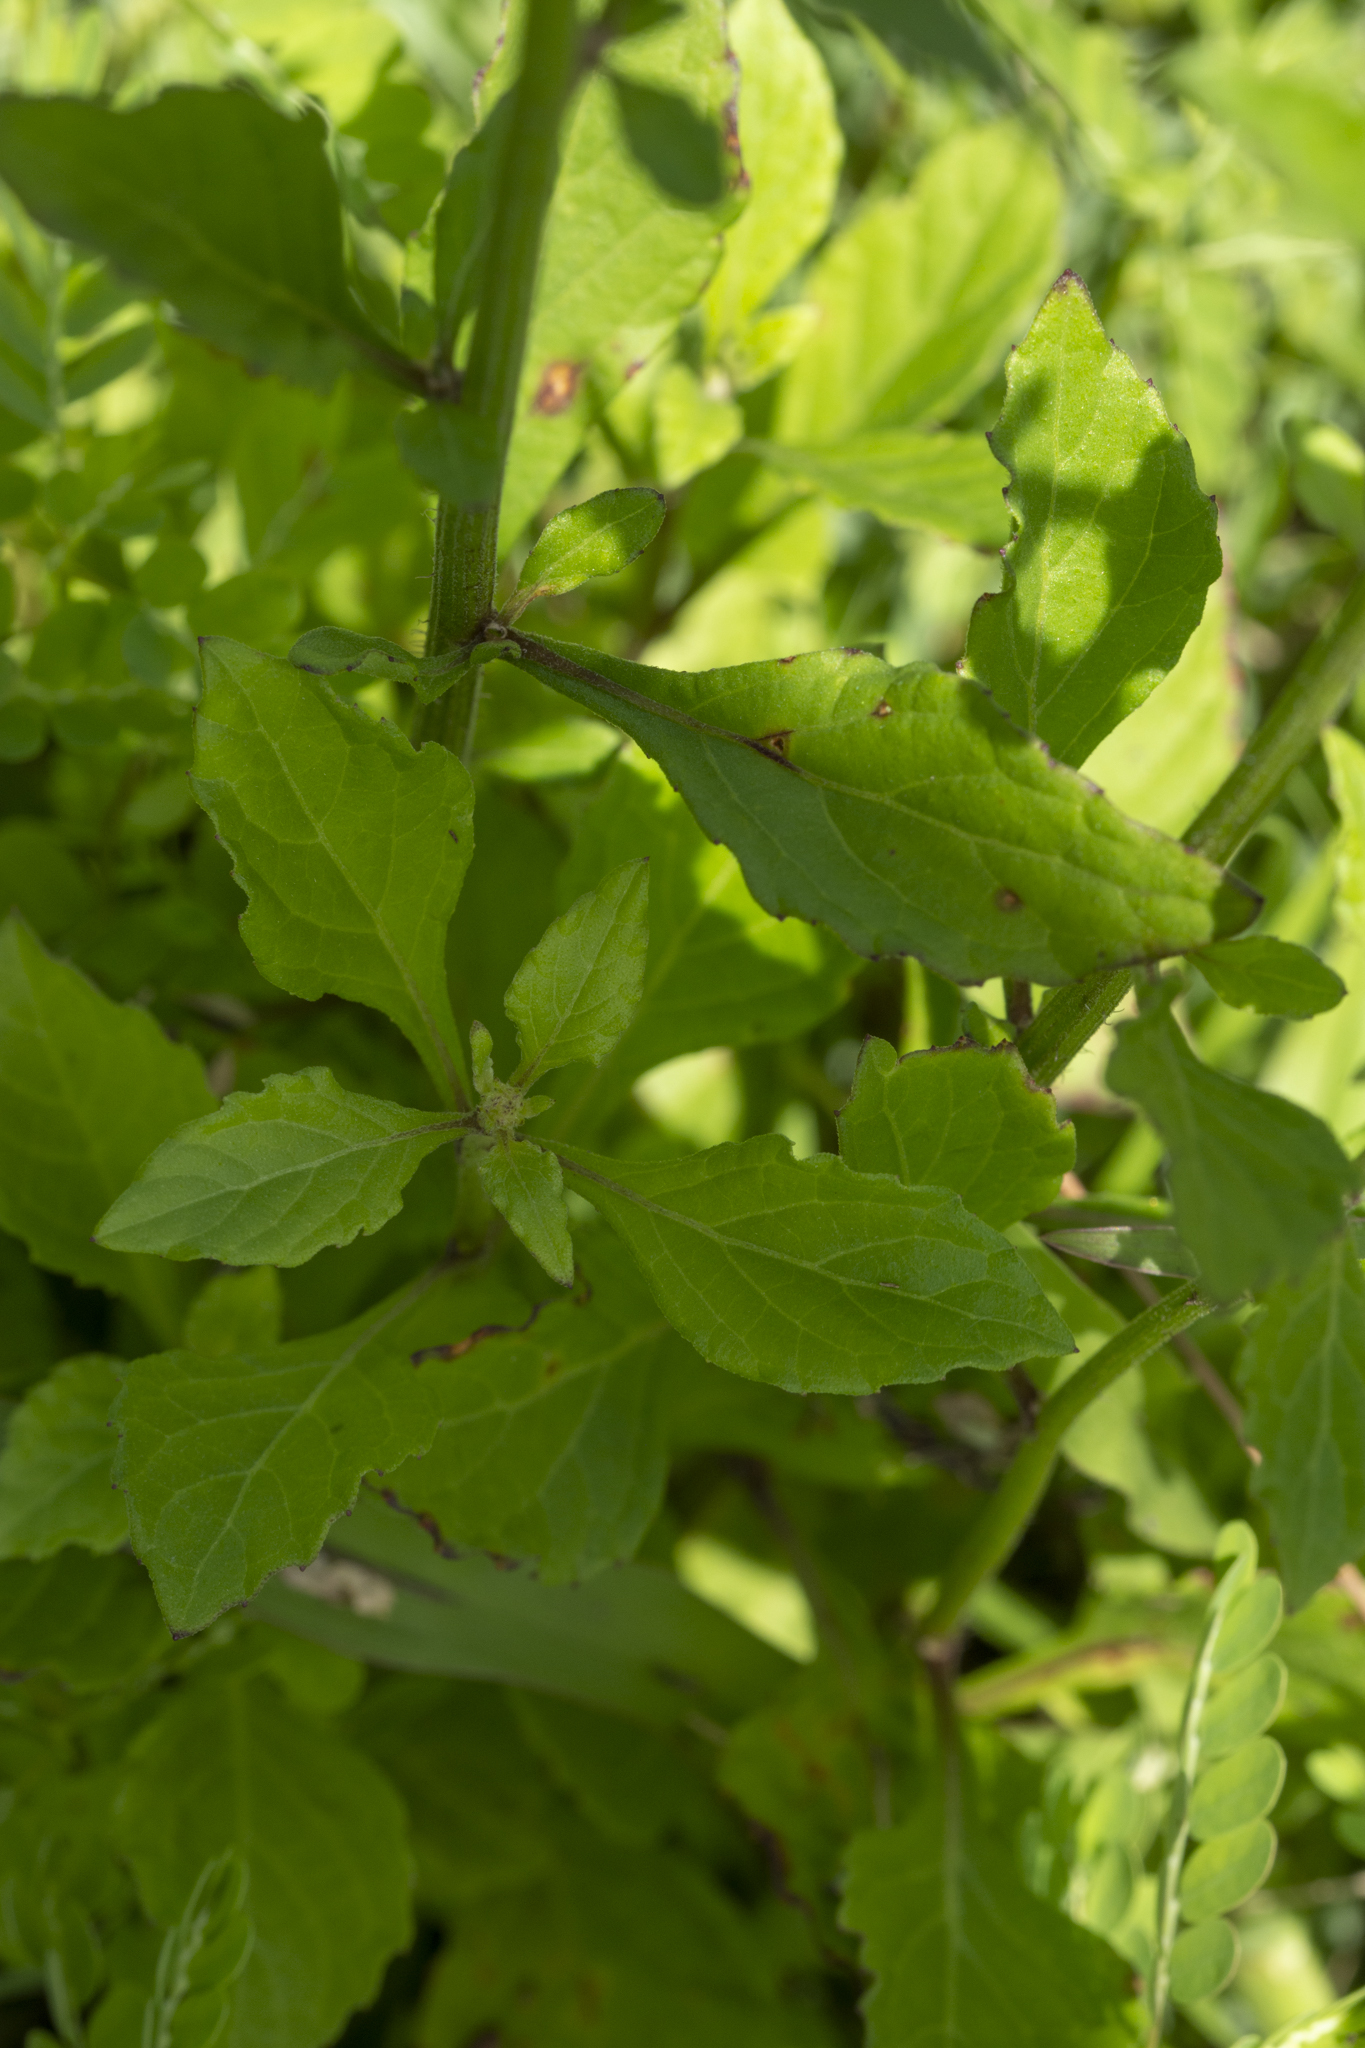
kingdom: Plantae
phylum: Tracheophyta
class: Magnoliopsida
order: Asterales
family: Asteraceae
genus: Cyanthillium
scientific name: Cyanthillium cinereum
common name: Little ironweed
